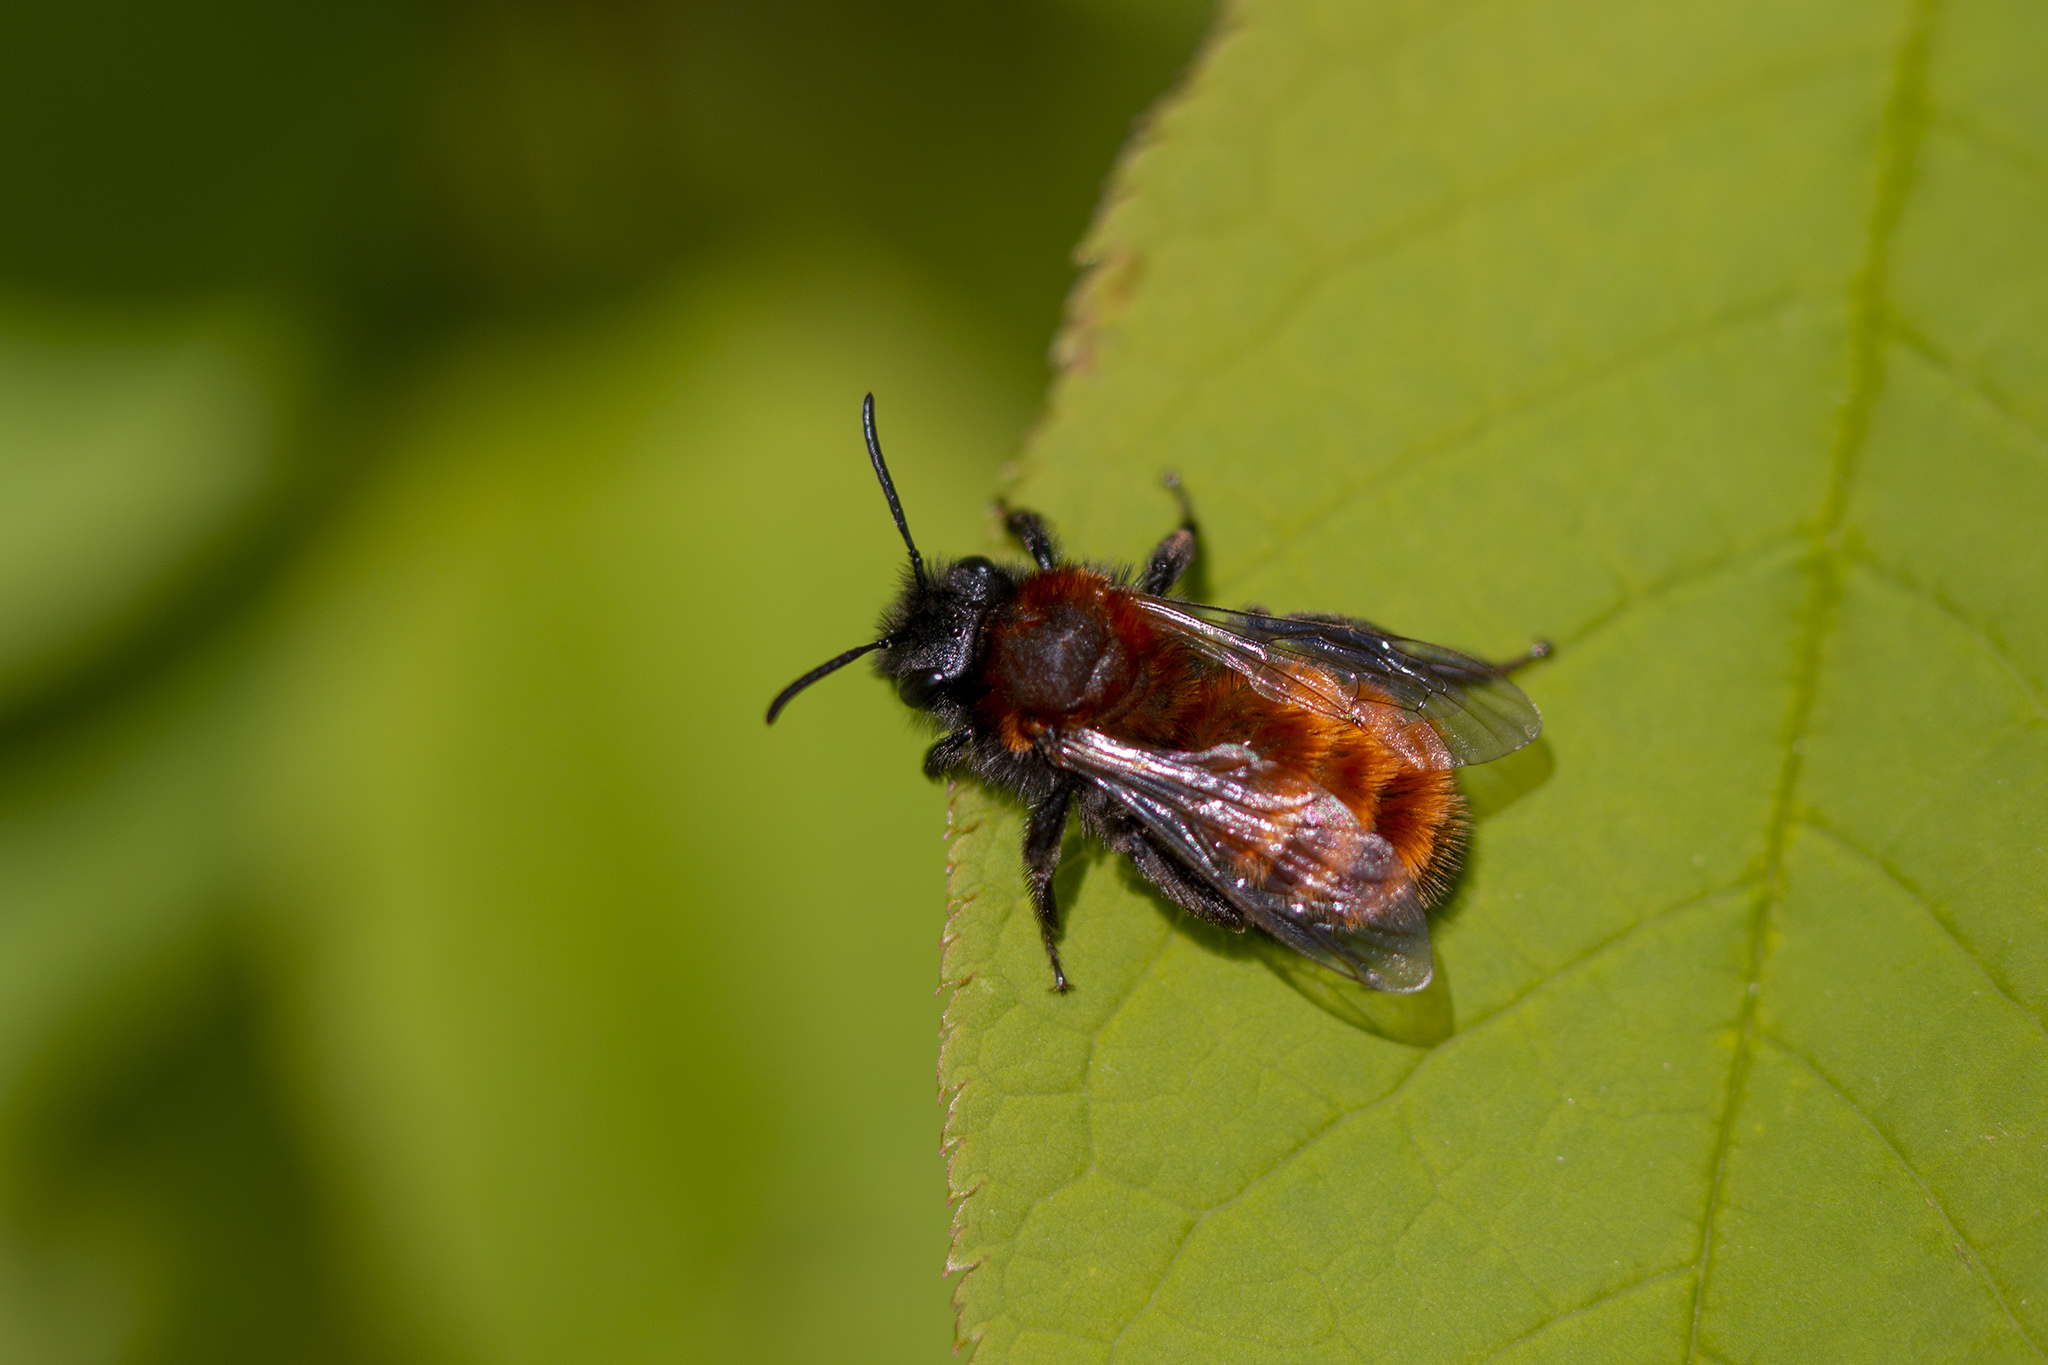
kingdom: Animalia
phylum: Arthropoda
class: Insecta
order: Hymenoptera
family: Andrenidae
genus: Andrena
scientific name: Andrena fulva
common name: Tawny mining bee
